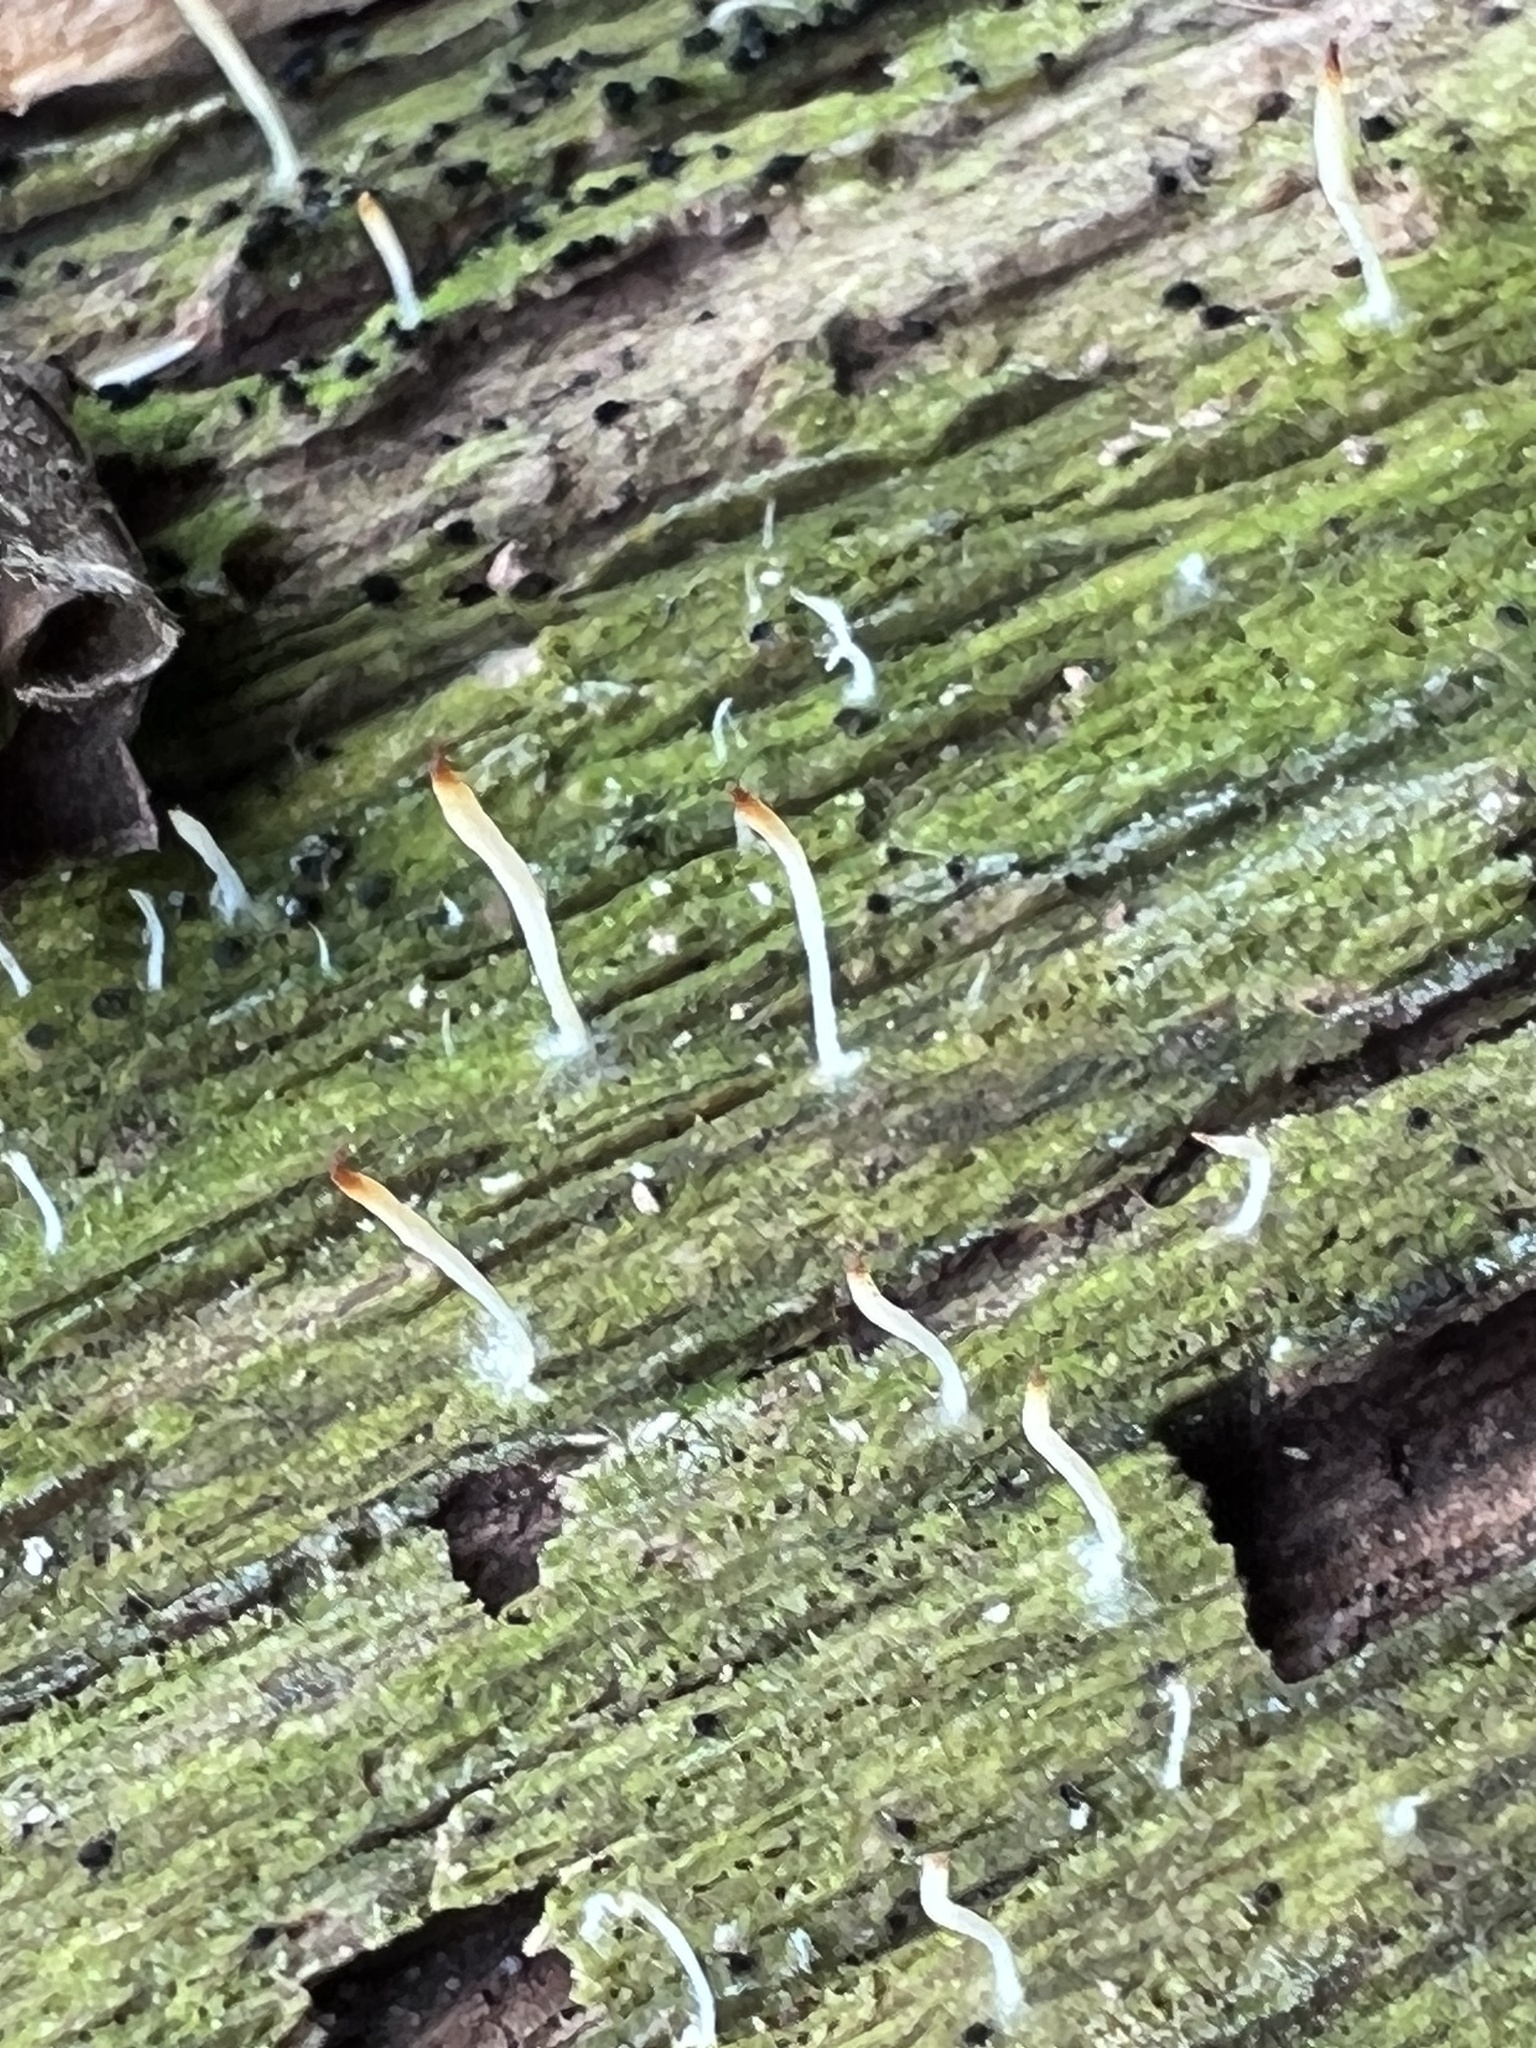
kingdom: Fungi
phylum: Basidiomycota
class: Agaricomycetes
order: Cantharellales
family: Hydnaceae
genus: Multiclavula
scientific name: Multiclavula mucida
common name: White green-algae coral
